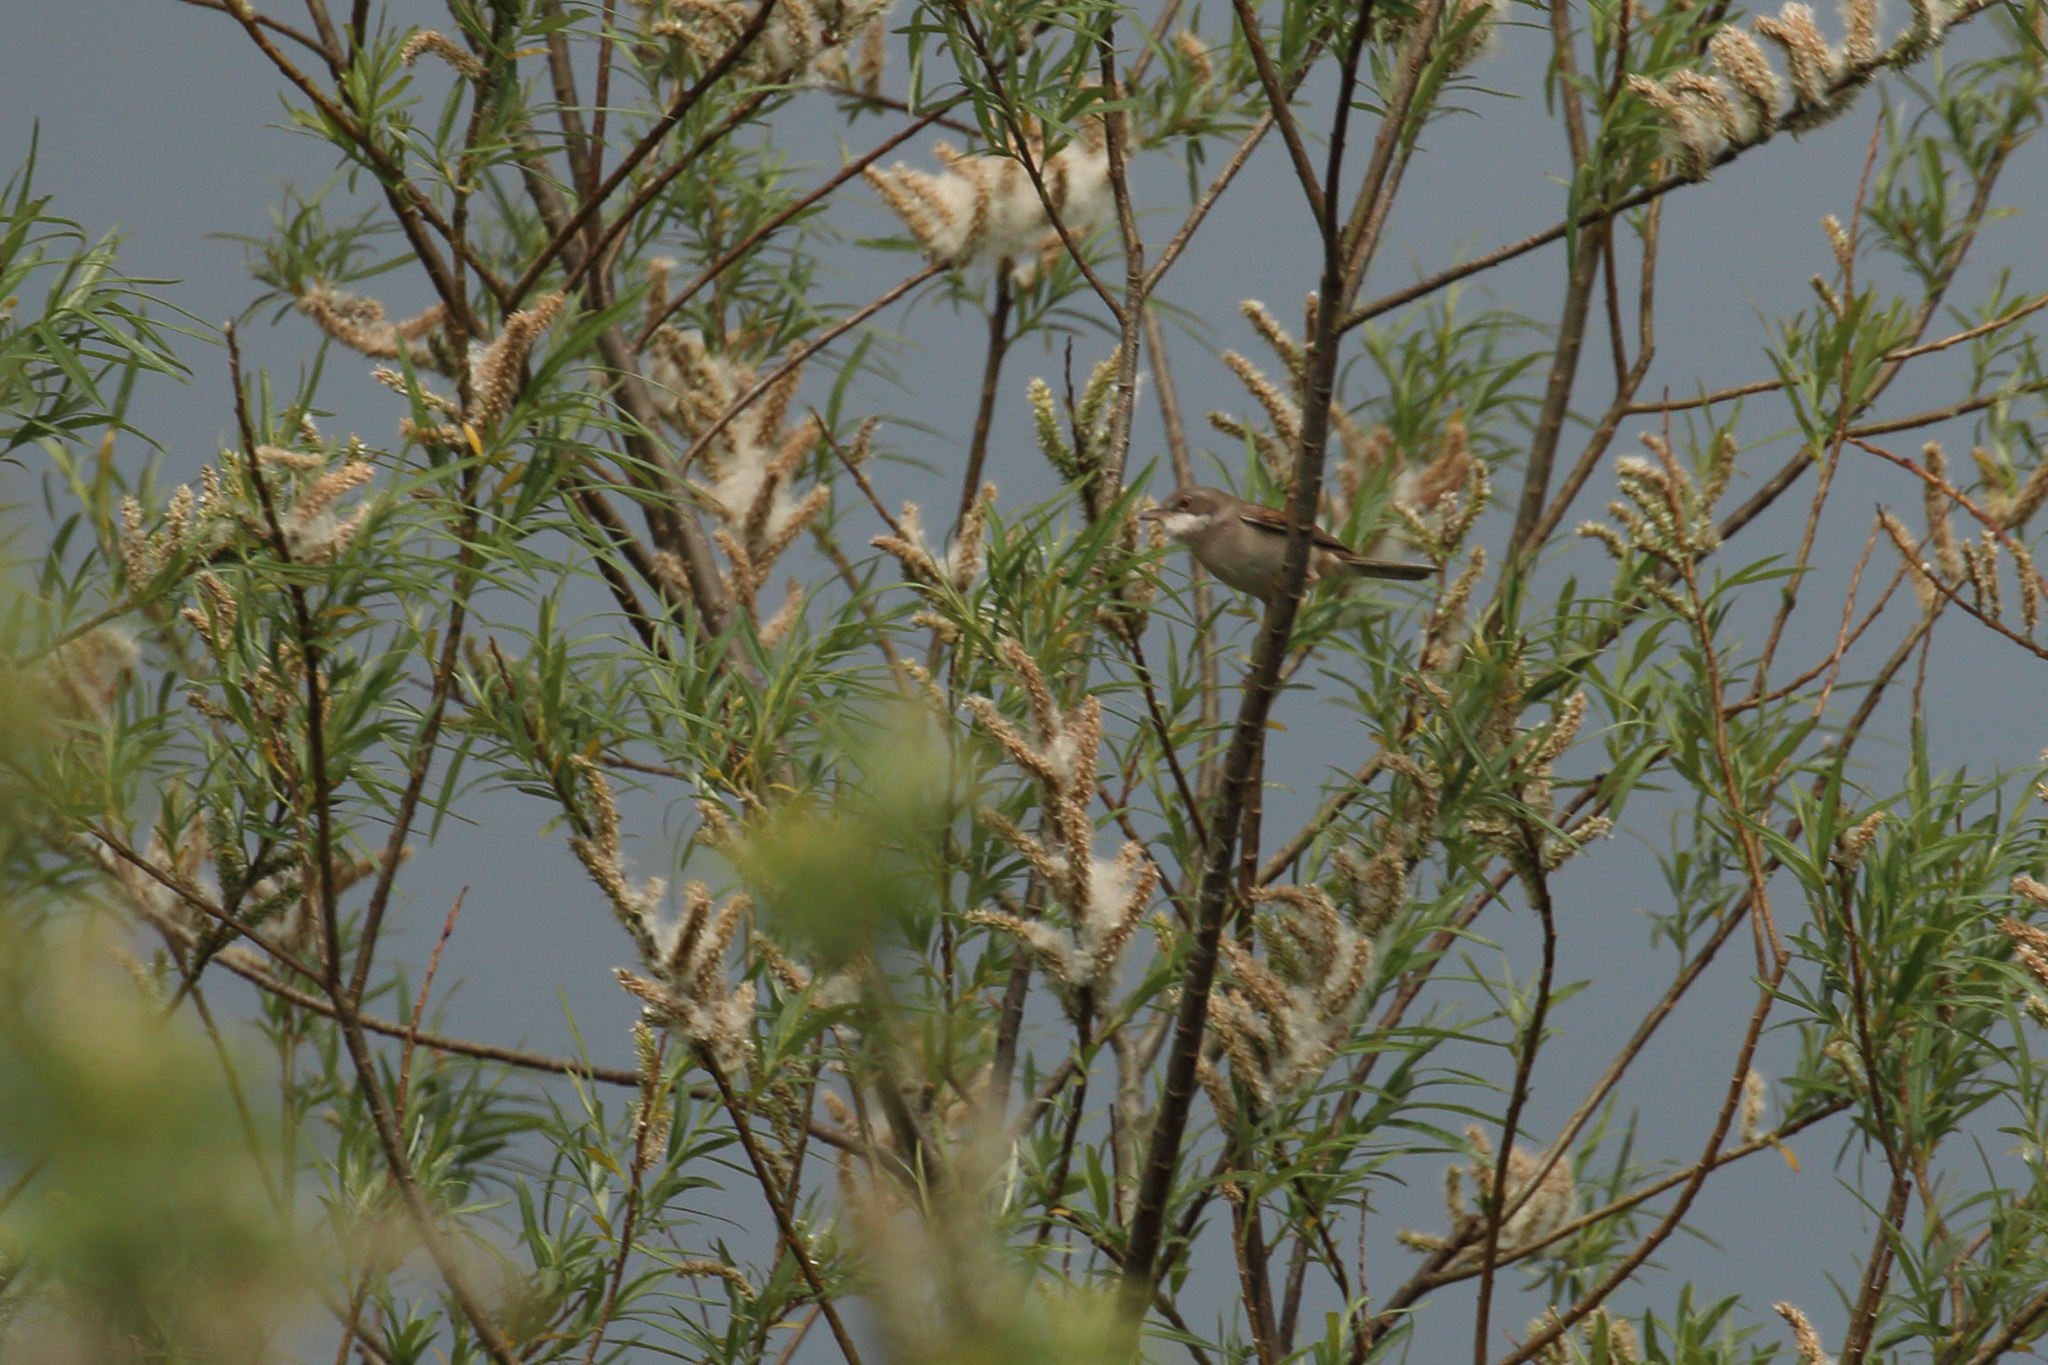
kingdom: Animalia
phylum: Chordata
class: Aves
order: Passeriformes
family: Sylviidae
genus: Sylvia
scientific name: Sylvia communis
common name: Common whitethroat
